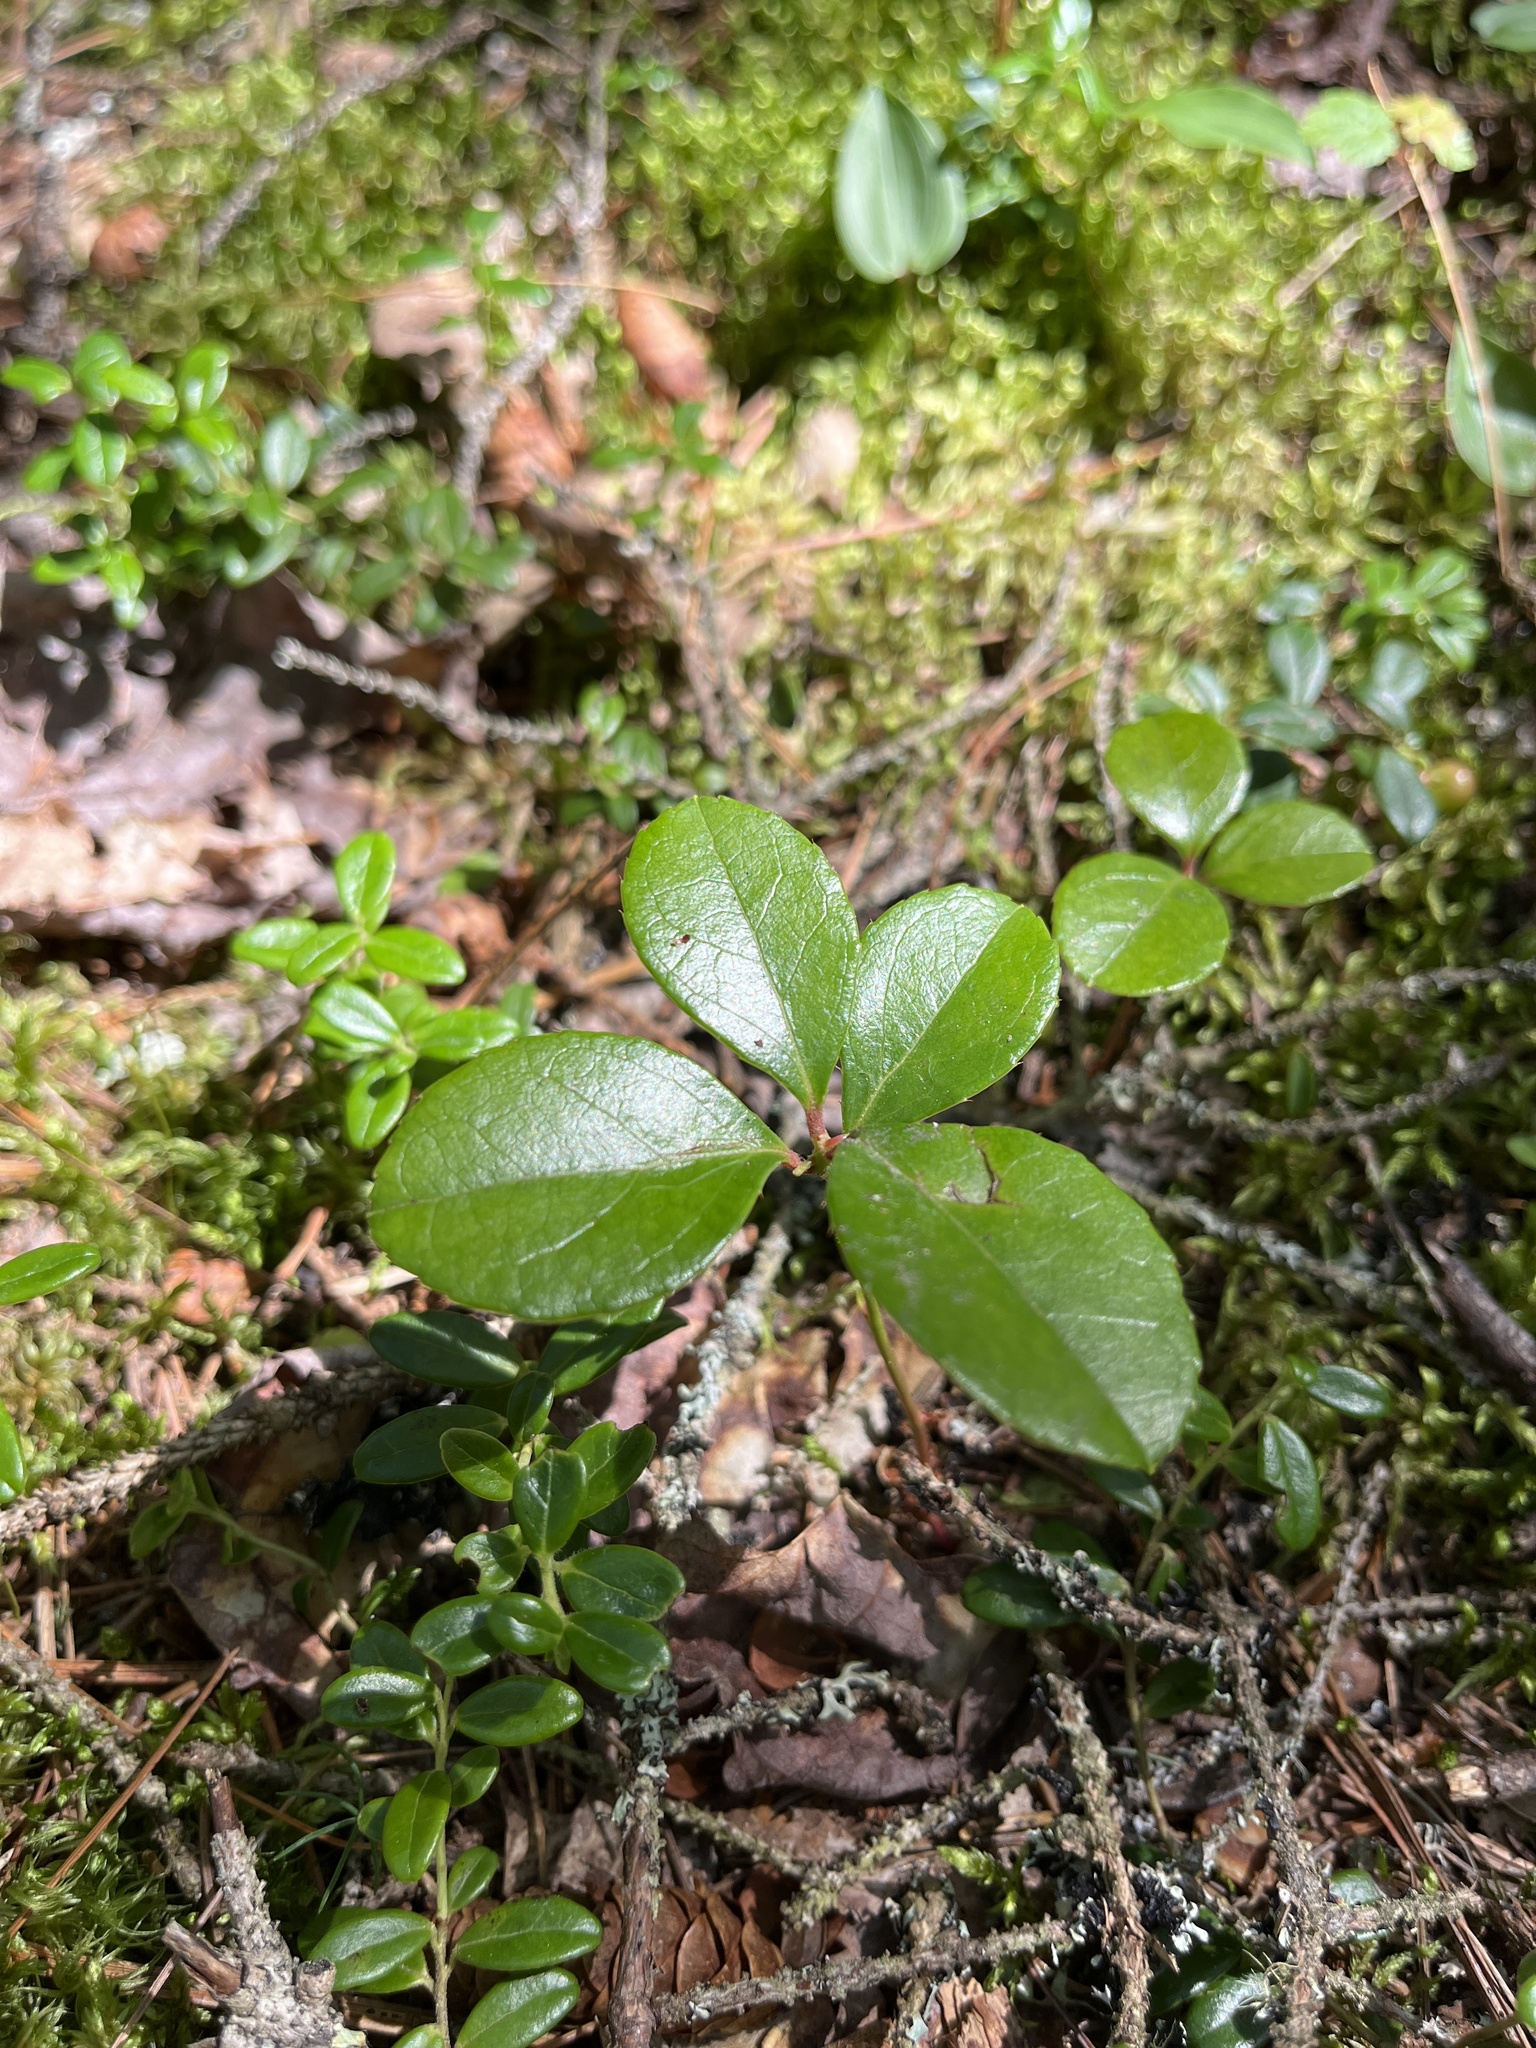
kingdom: Plantae
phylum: Tracheophyta
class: Magnoliopsida
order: Ericales
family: Ericaceae
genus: Gaultheria
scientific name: Gaultheria procumbens
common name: Checkerberry
